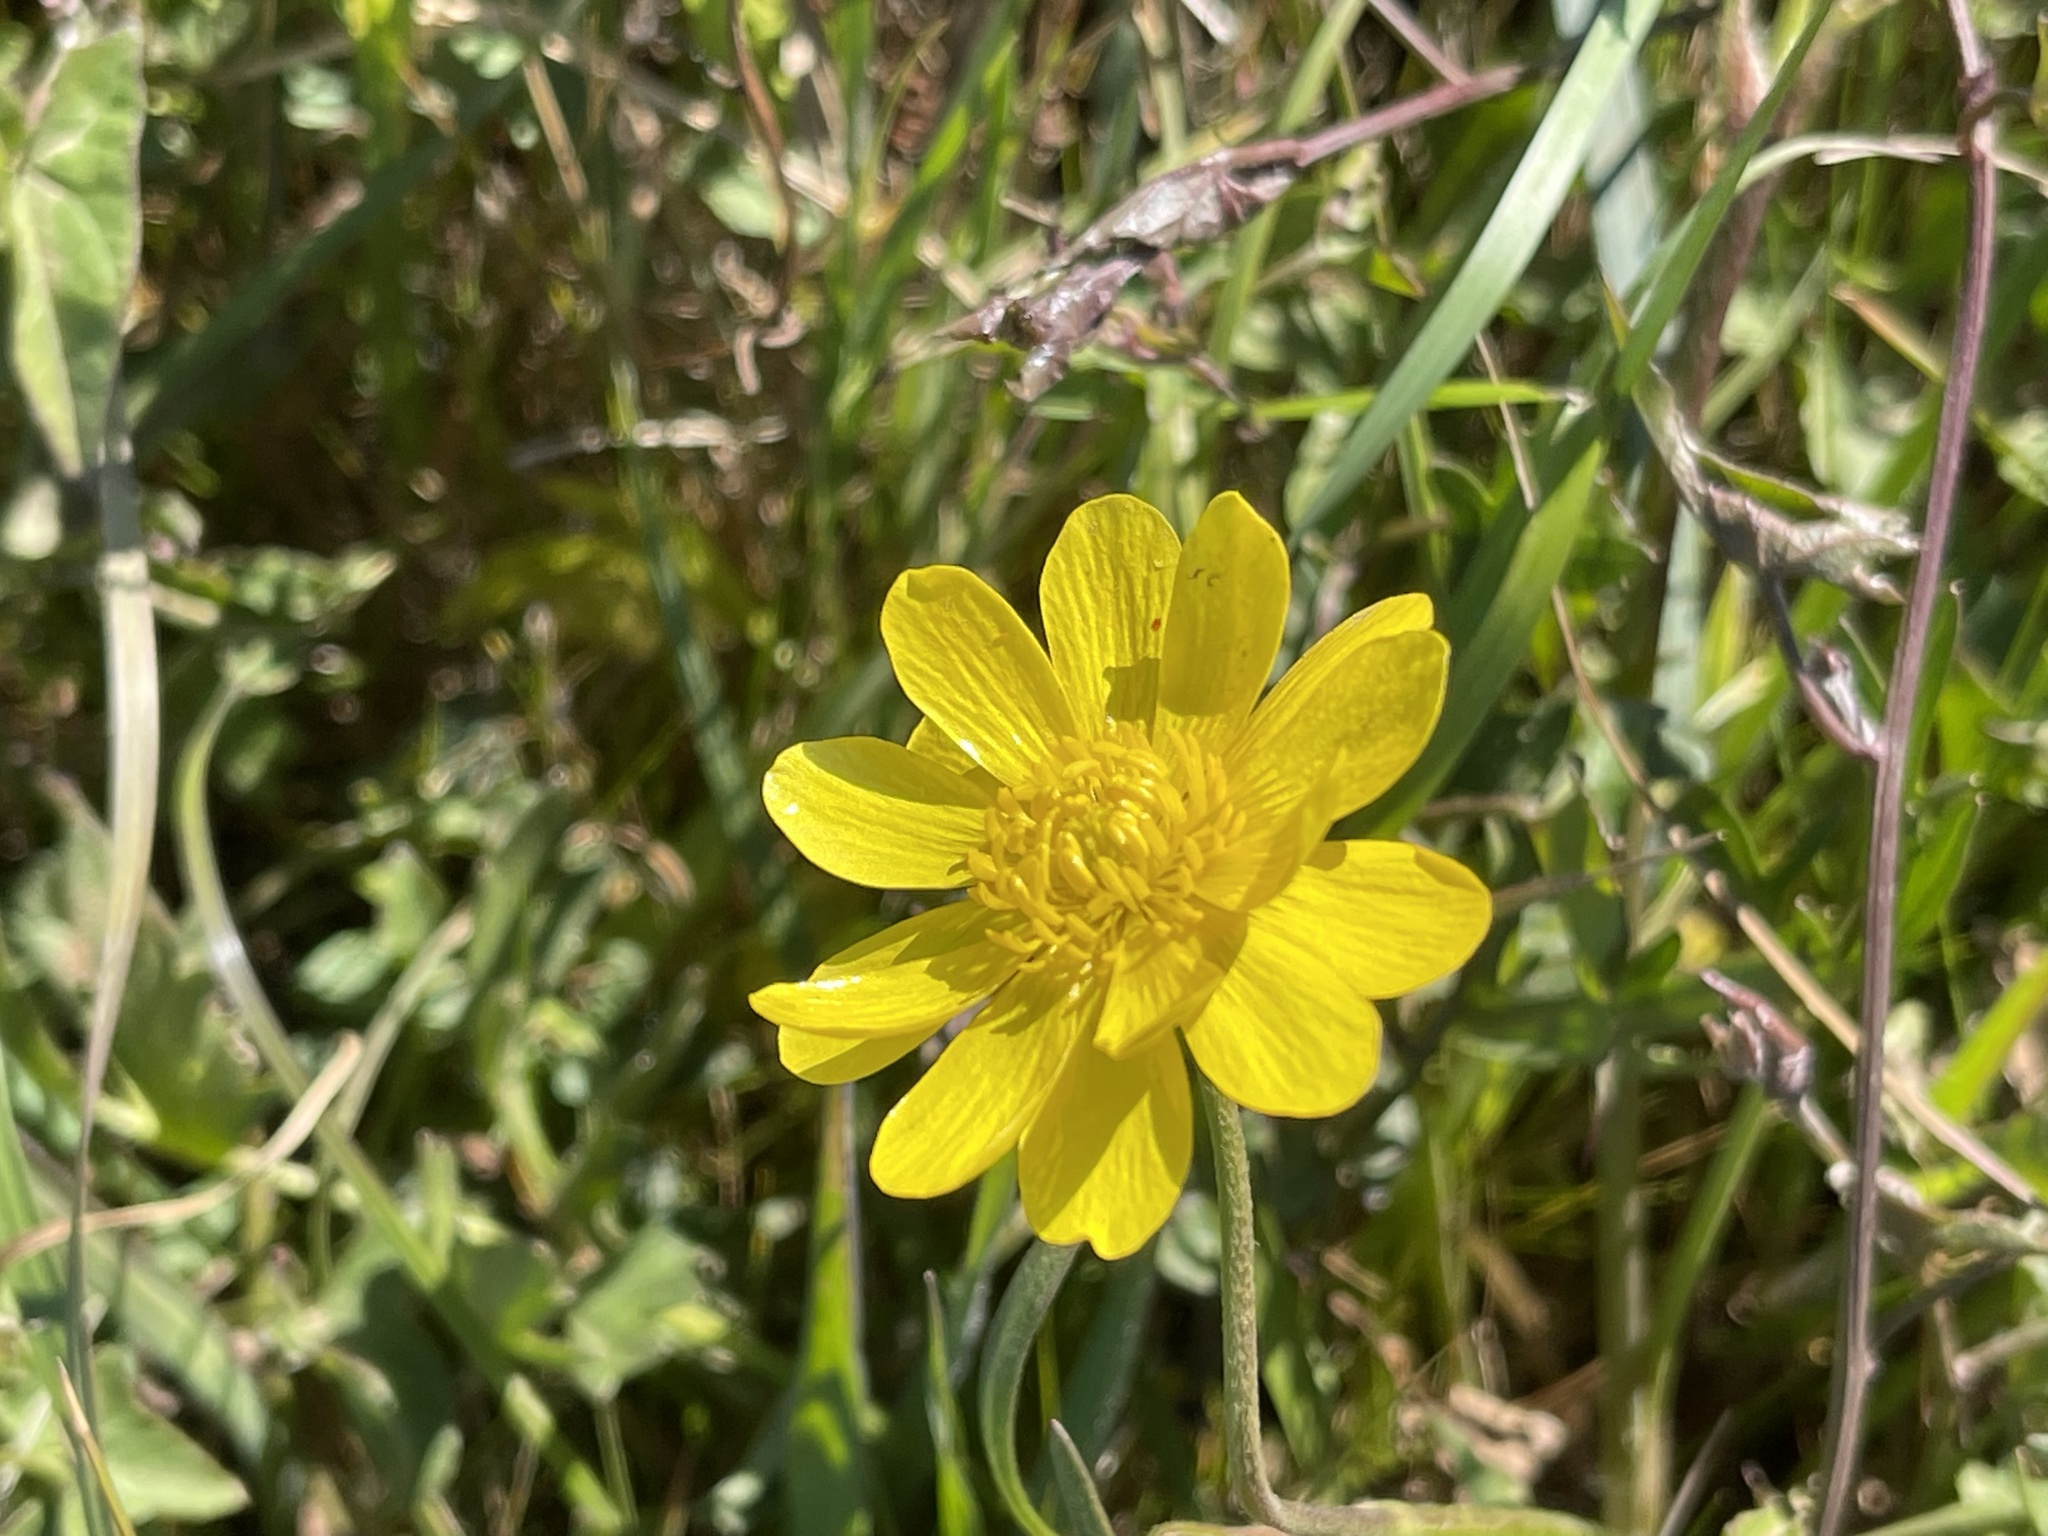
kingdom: Plantae
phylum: Tracheophyta
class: Magnoliopsida
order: Ranunculales
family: Ranunculaceae
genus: Ranunculus
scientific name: Ranunculus californicus
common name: California buttercup
